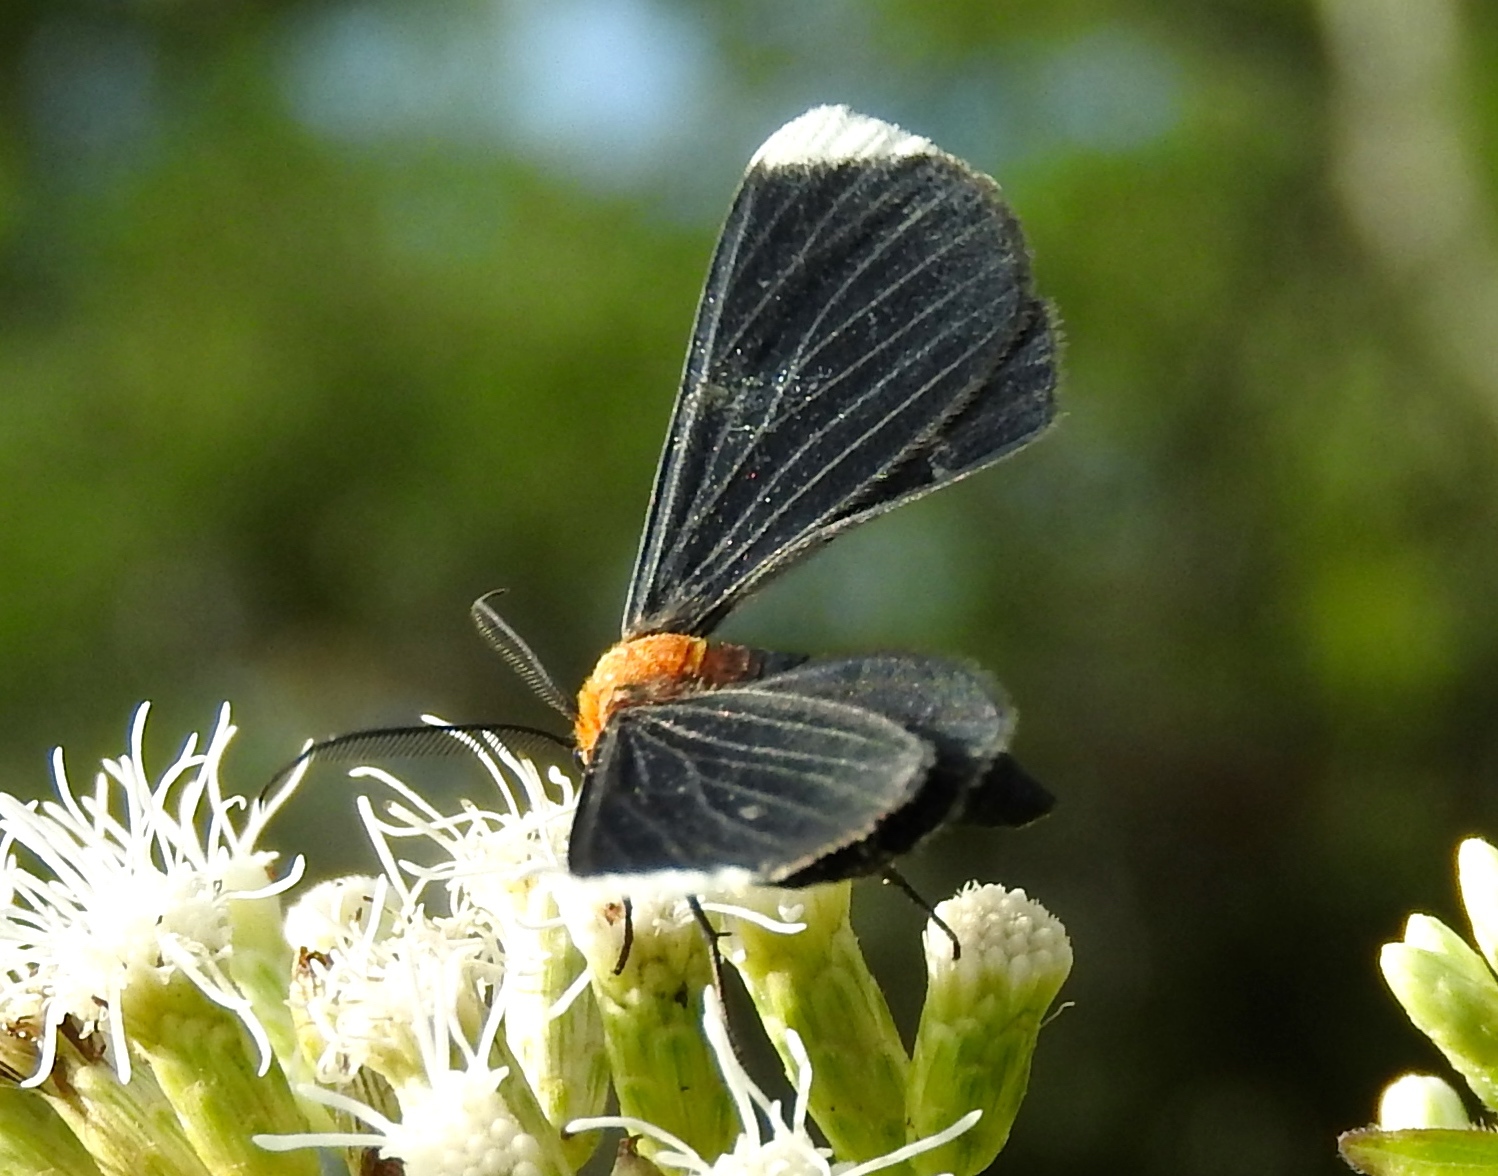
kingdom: Animalia
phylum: Arthropoda
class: Insecta
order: Lepidoptera
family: Geometridae
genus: Melanchroia
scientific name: Melanchroia chephise
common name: White-tipped black
